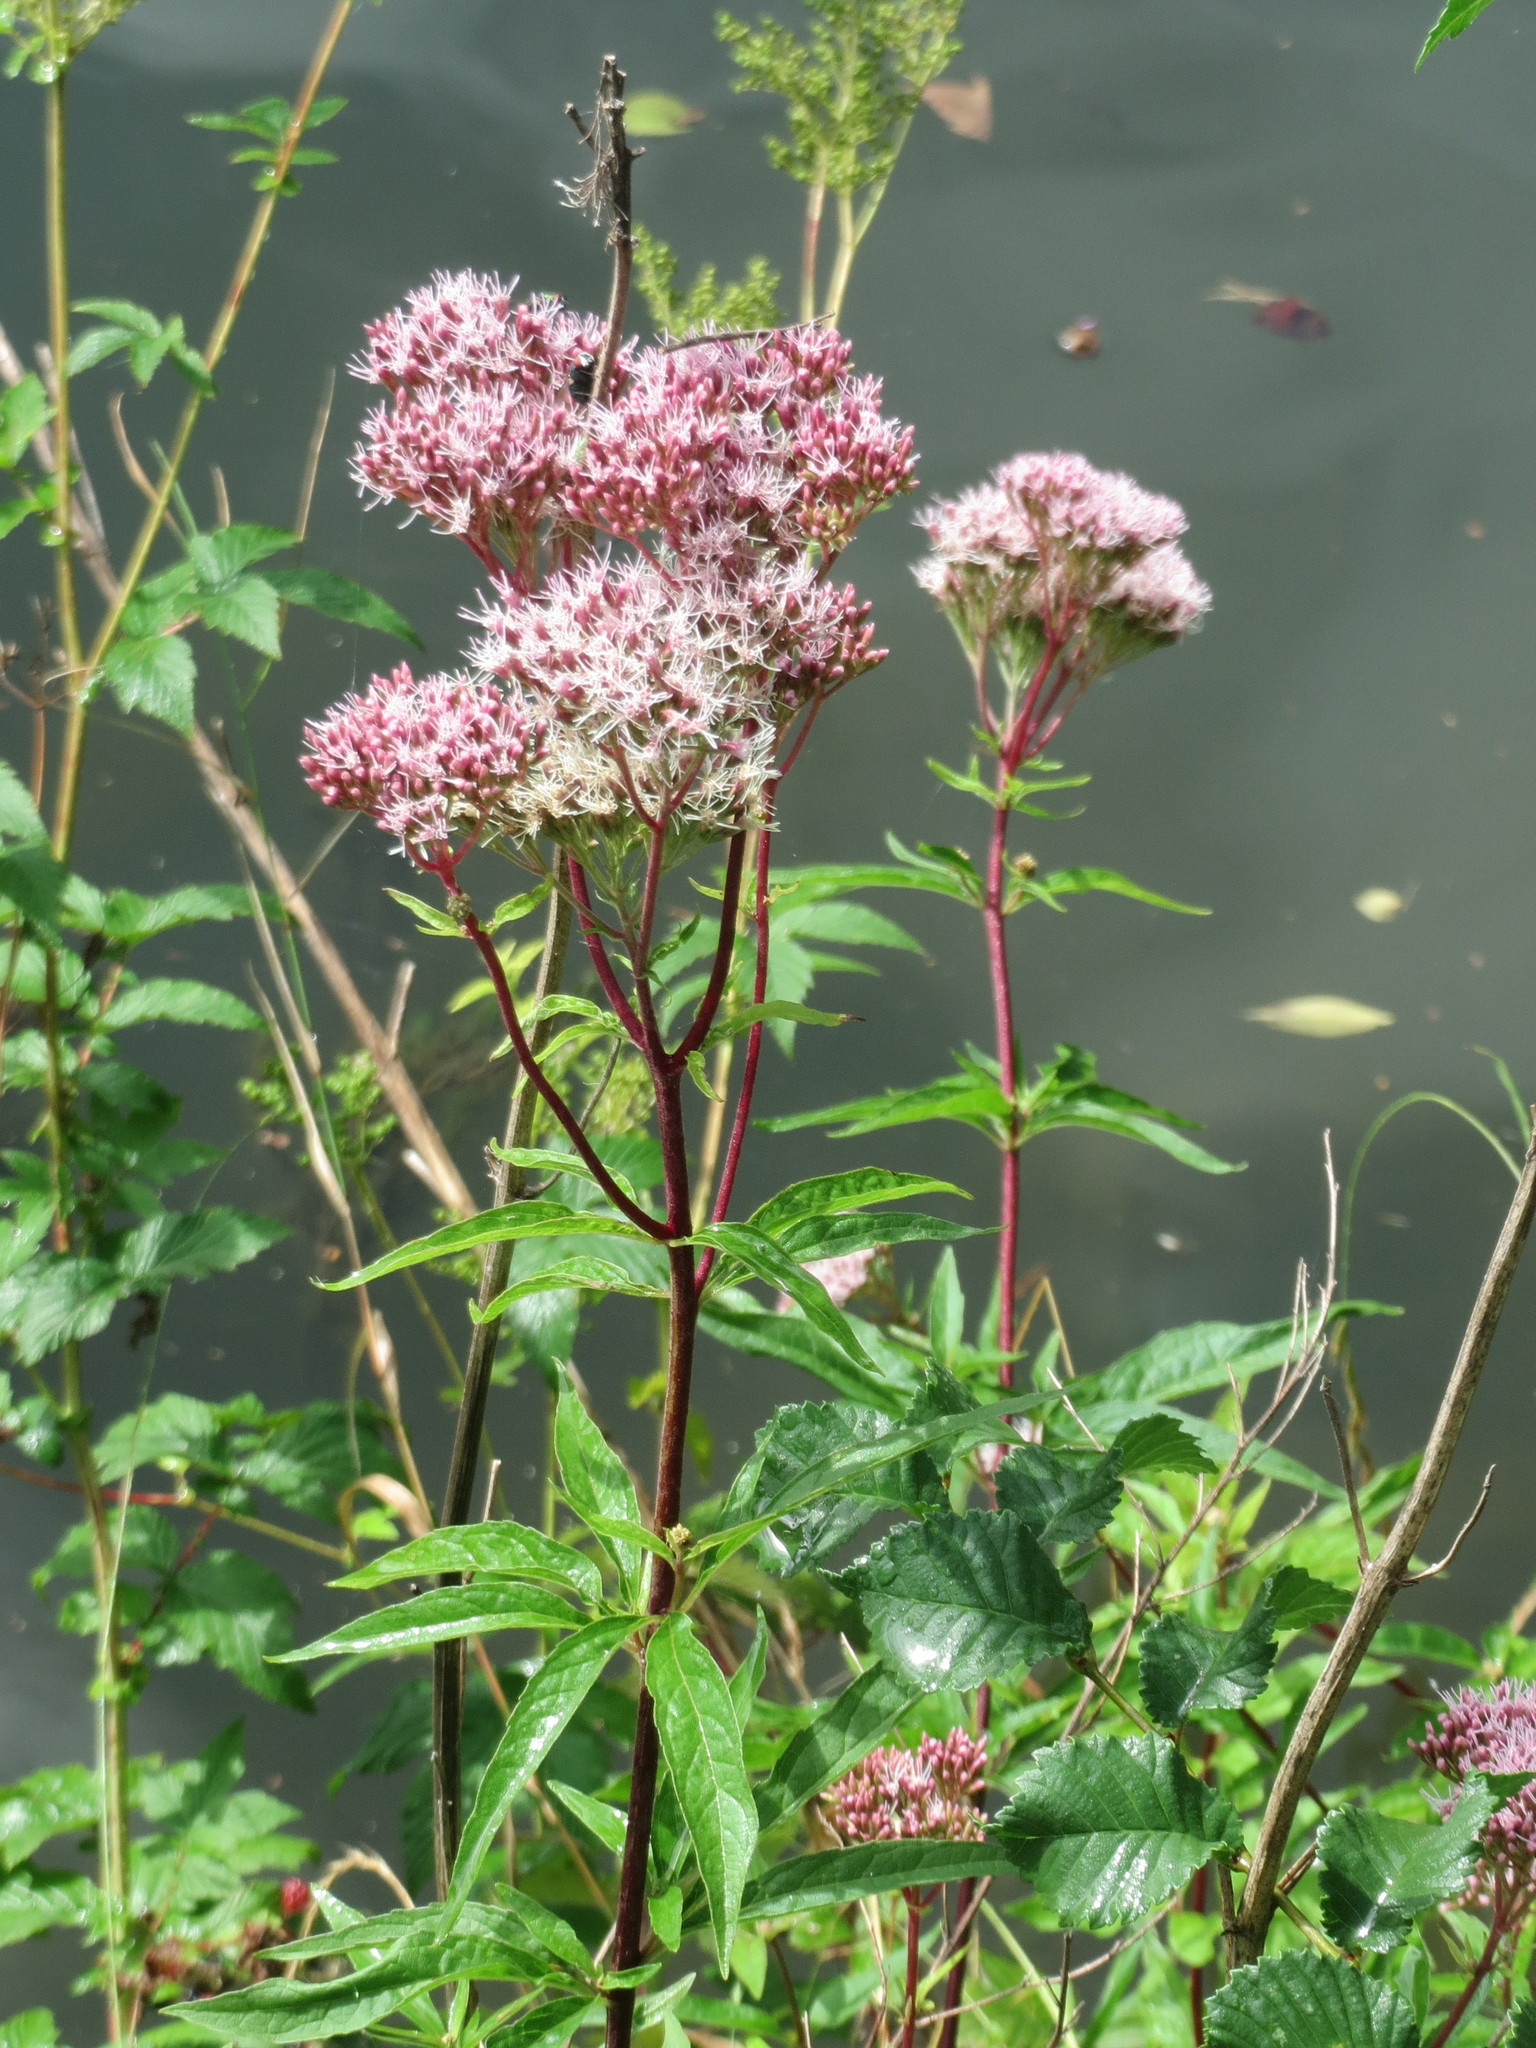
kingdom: Plantae
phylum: Tracheophyta
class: Magnoliopsida
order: Asterales
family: Asteraceae
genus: Eupatorium
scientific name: Eupatorium cannabinum
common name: Hemp-agrimony
